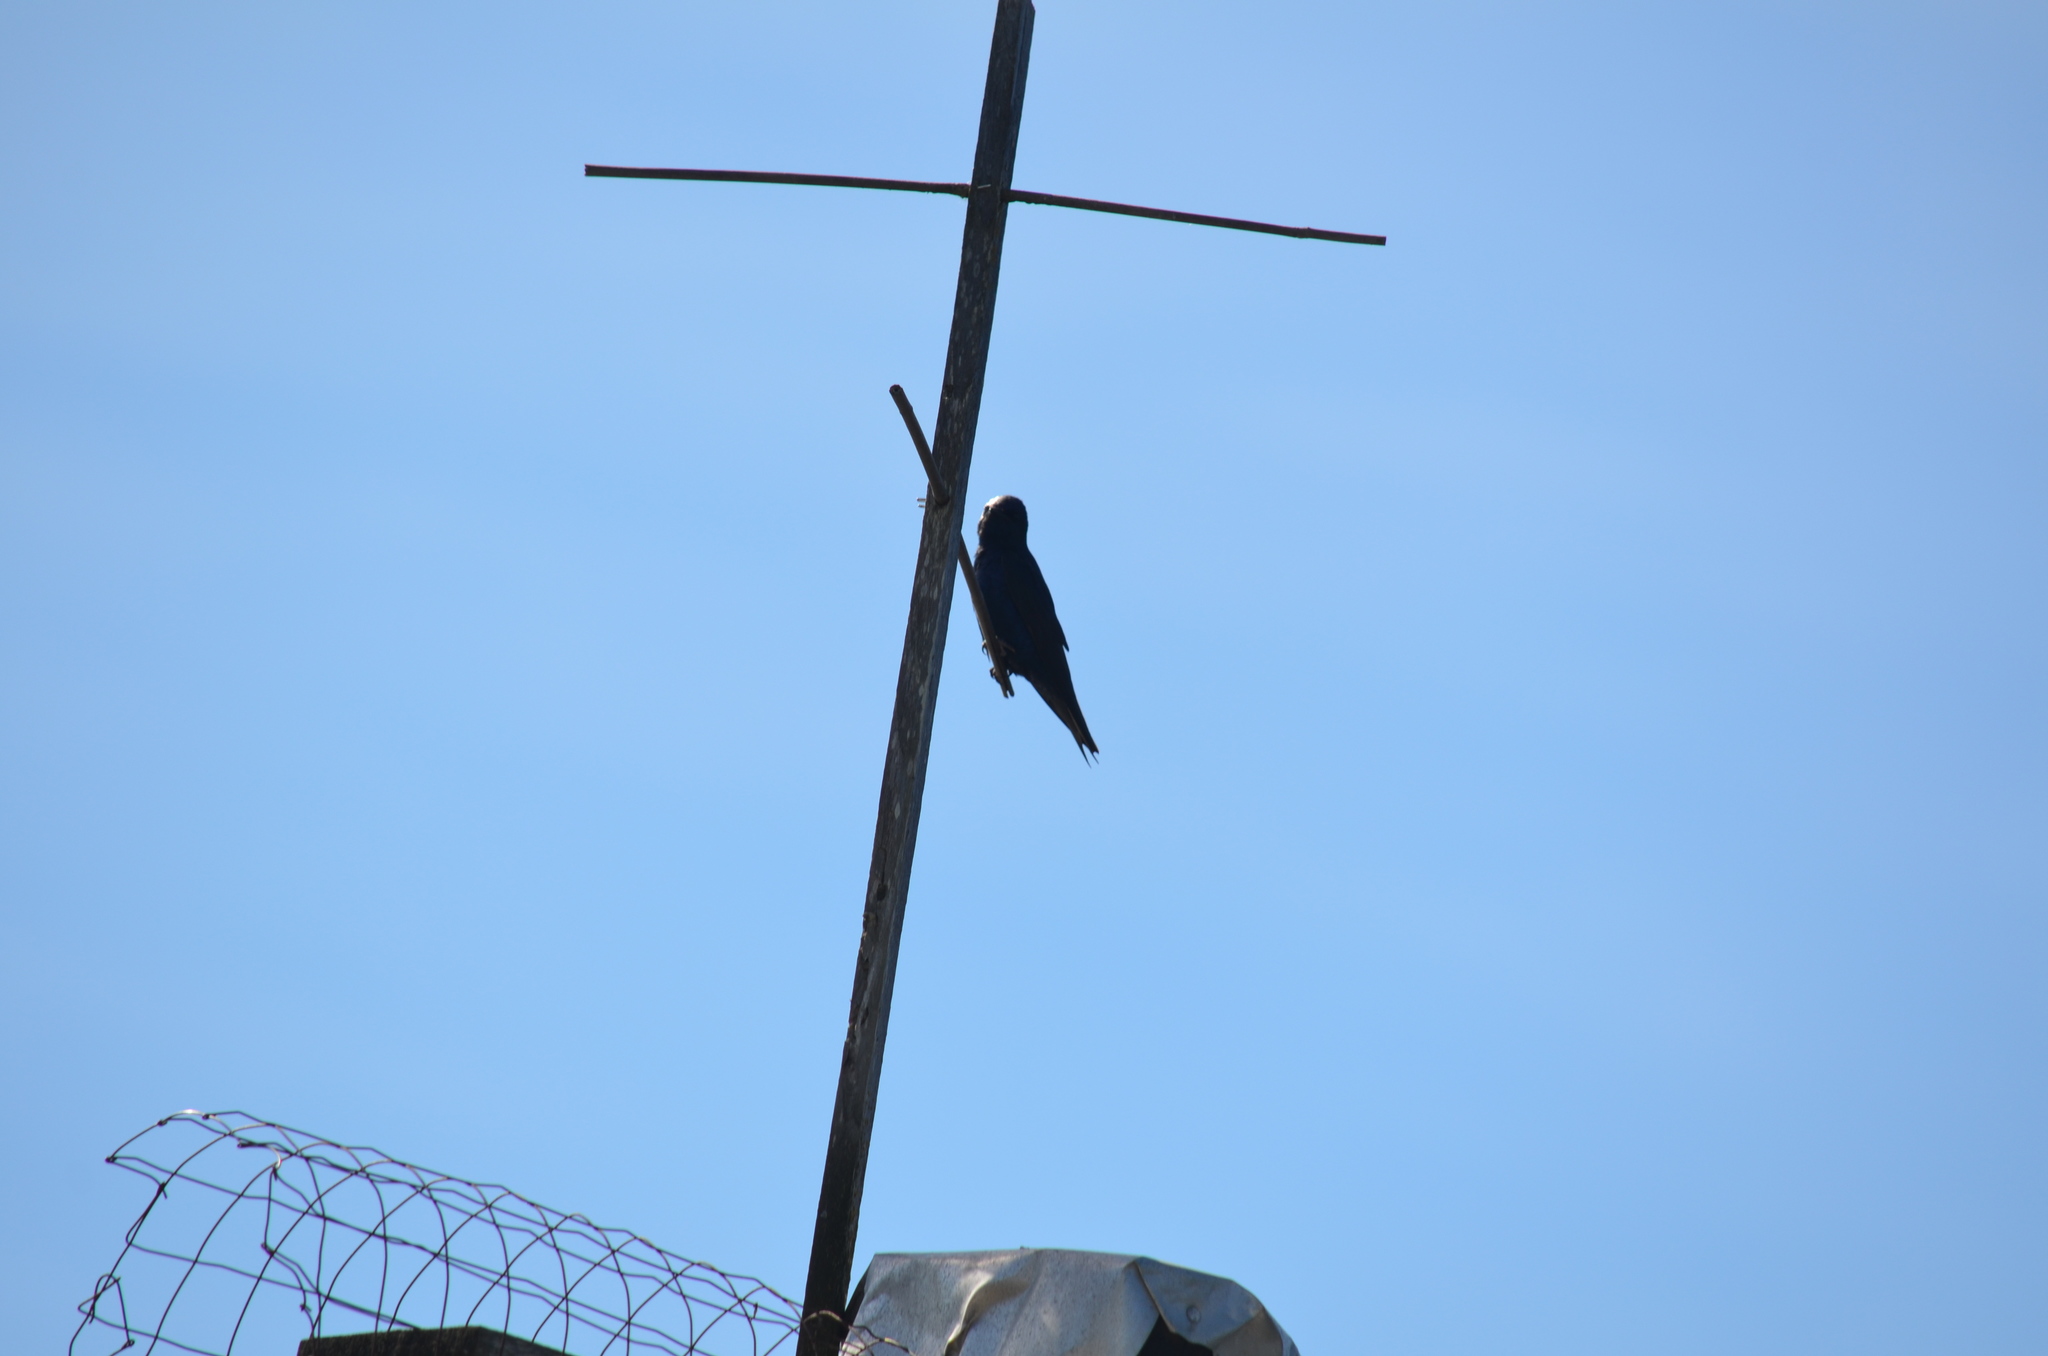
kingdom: Animalia
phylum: Chordata
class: Aves
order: Passeriformes
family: Hirundinidae
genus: Progne
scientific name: Progne subis
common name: Purple martin
